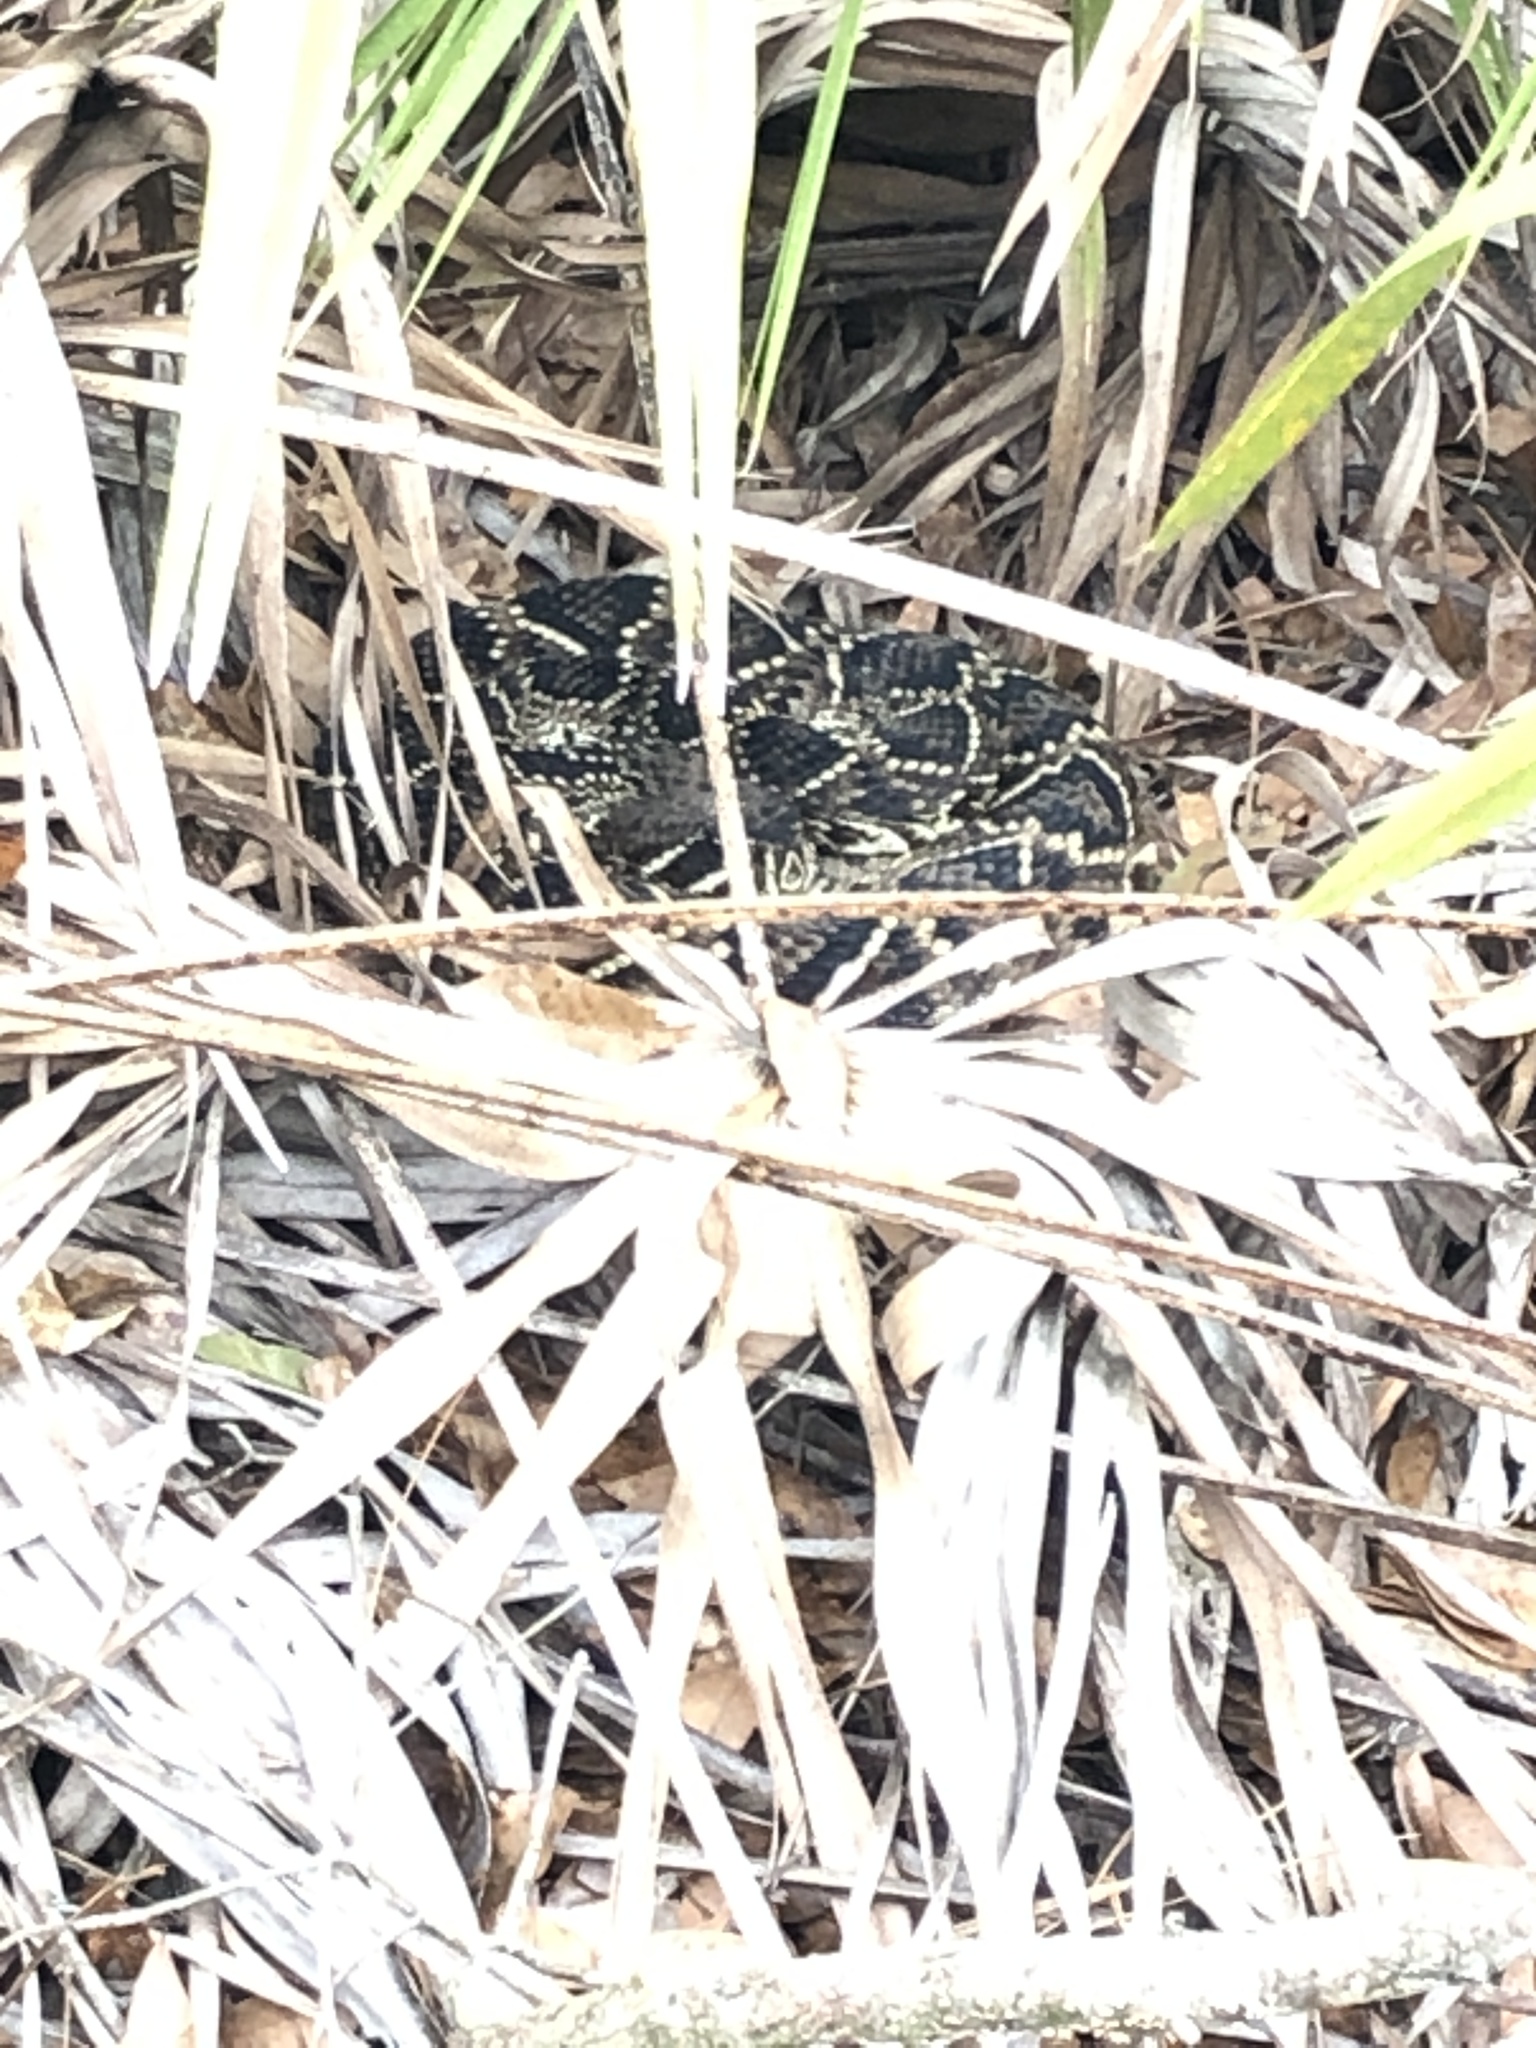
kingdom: Animalia
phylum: Chordata
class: Squamata
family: Viperidae
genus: Crotalus
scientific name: Crotalus adamanteus
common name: Eastern diamondback rattlesnake
